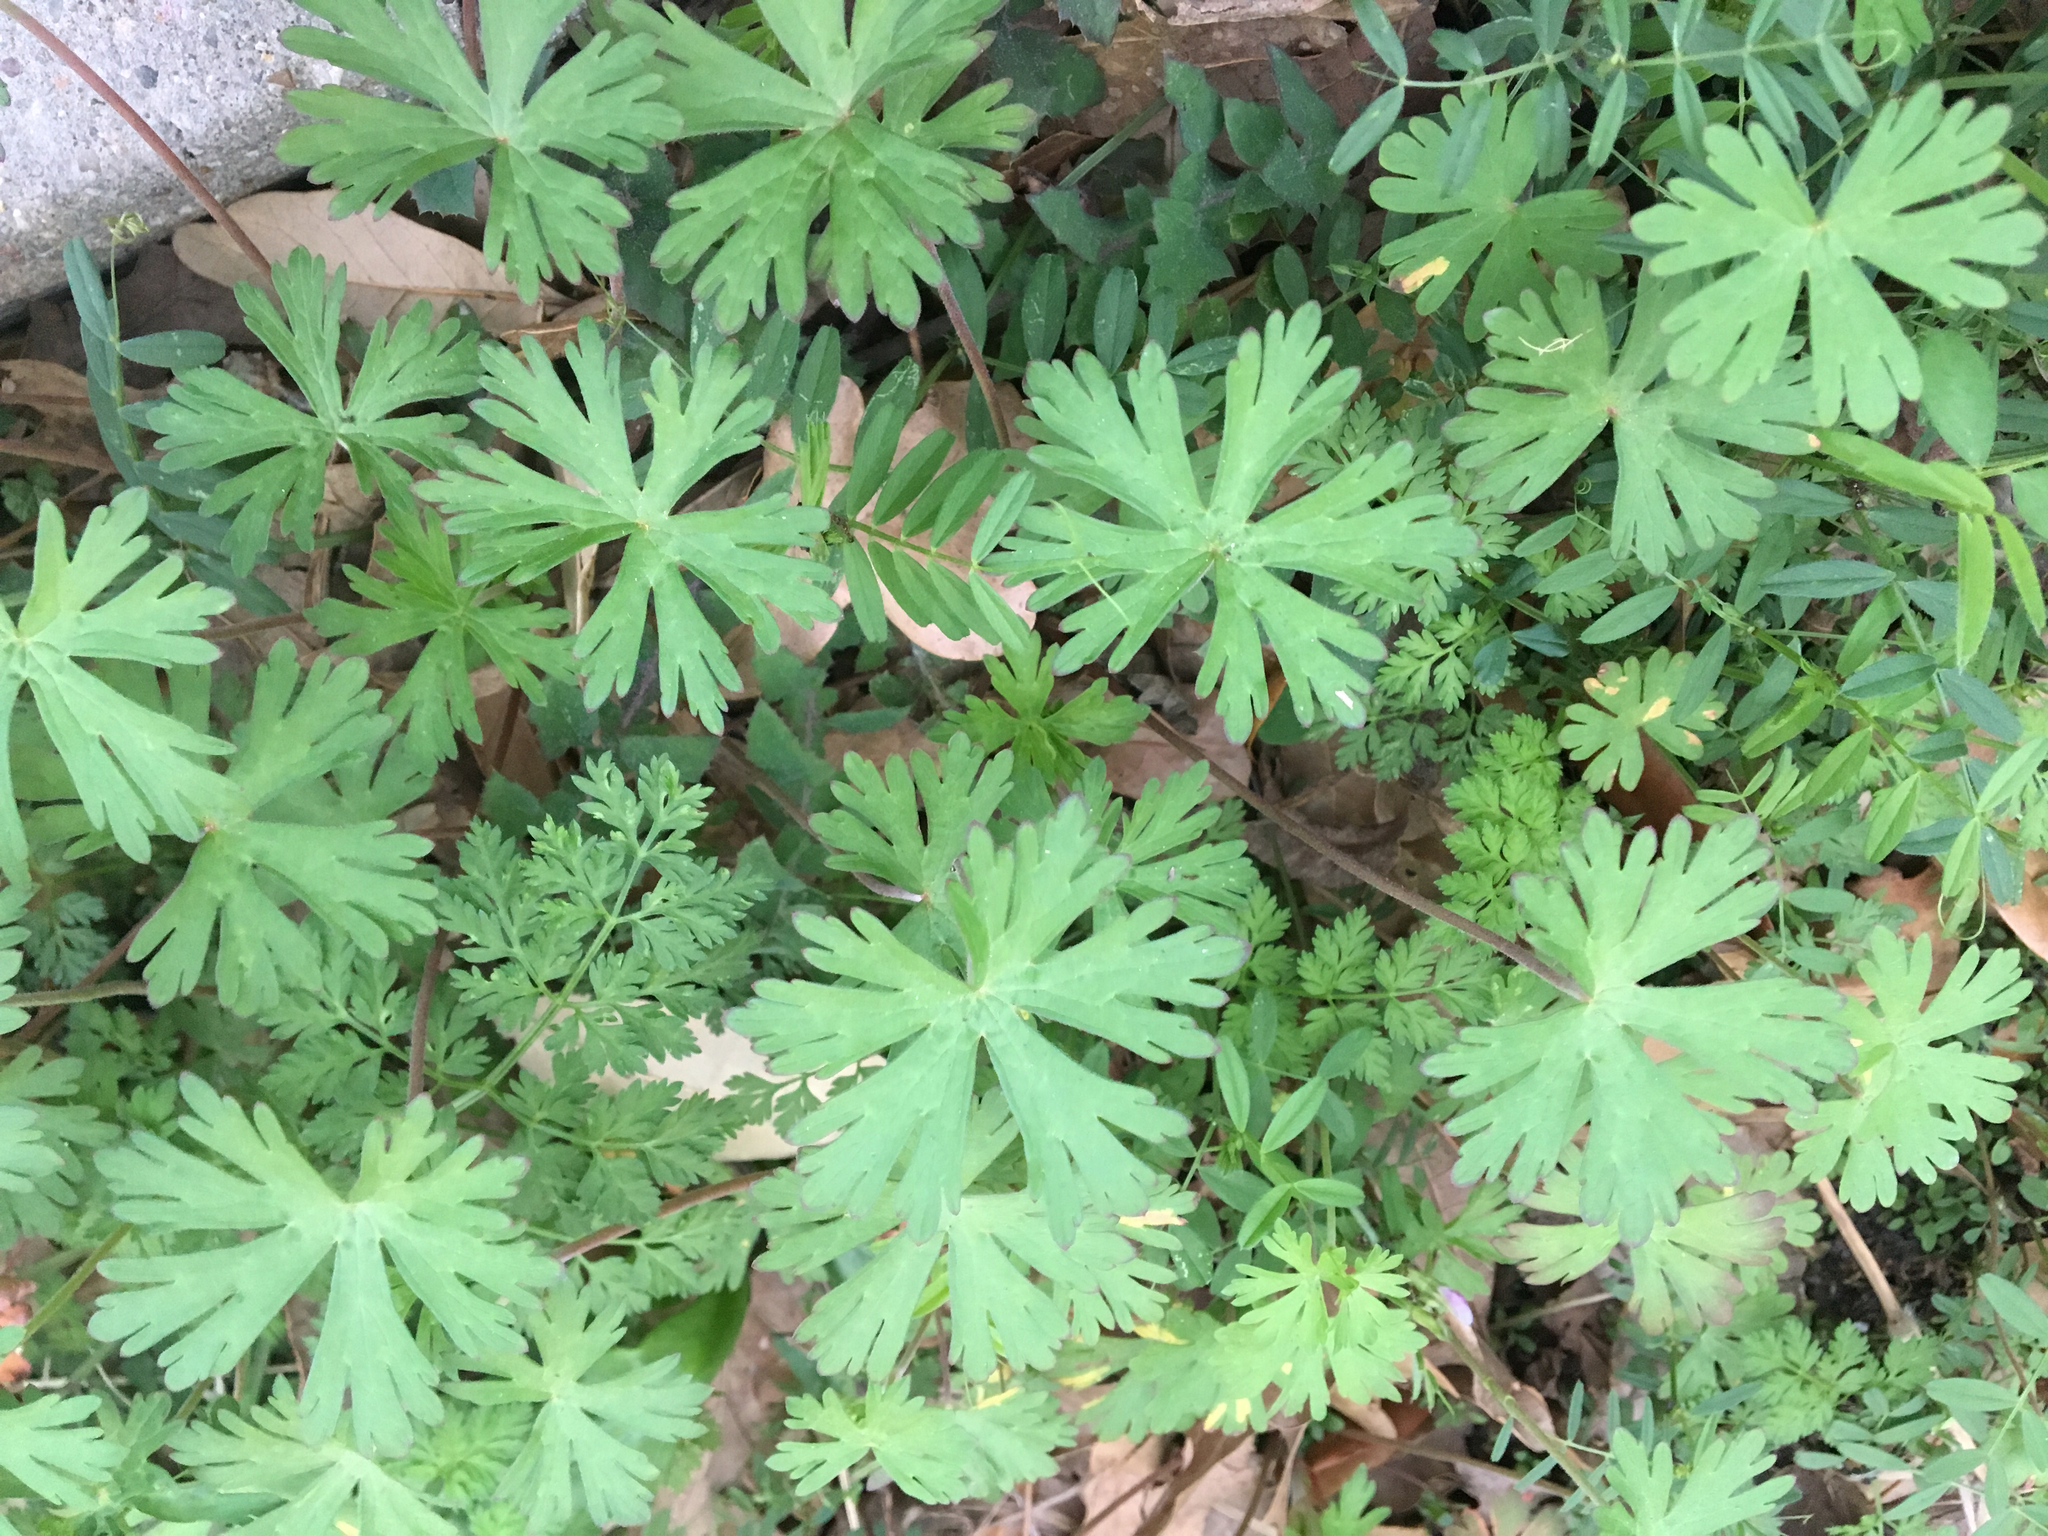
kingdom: Plantae
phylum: Tracheophyta
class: Magnoliopsida
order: Geraniales
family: Geraniaceae
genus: Geranium
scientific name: Geranium carolinianum
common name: Carolina crane's-bill
